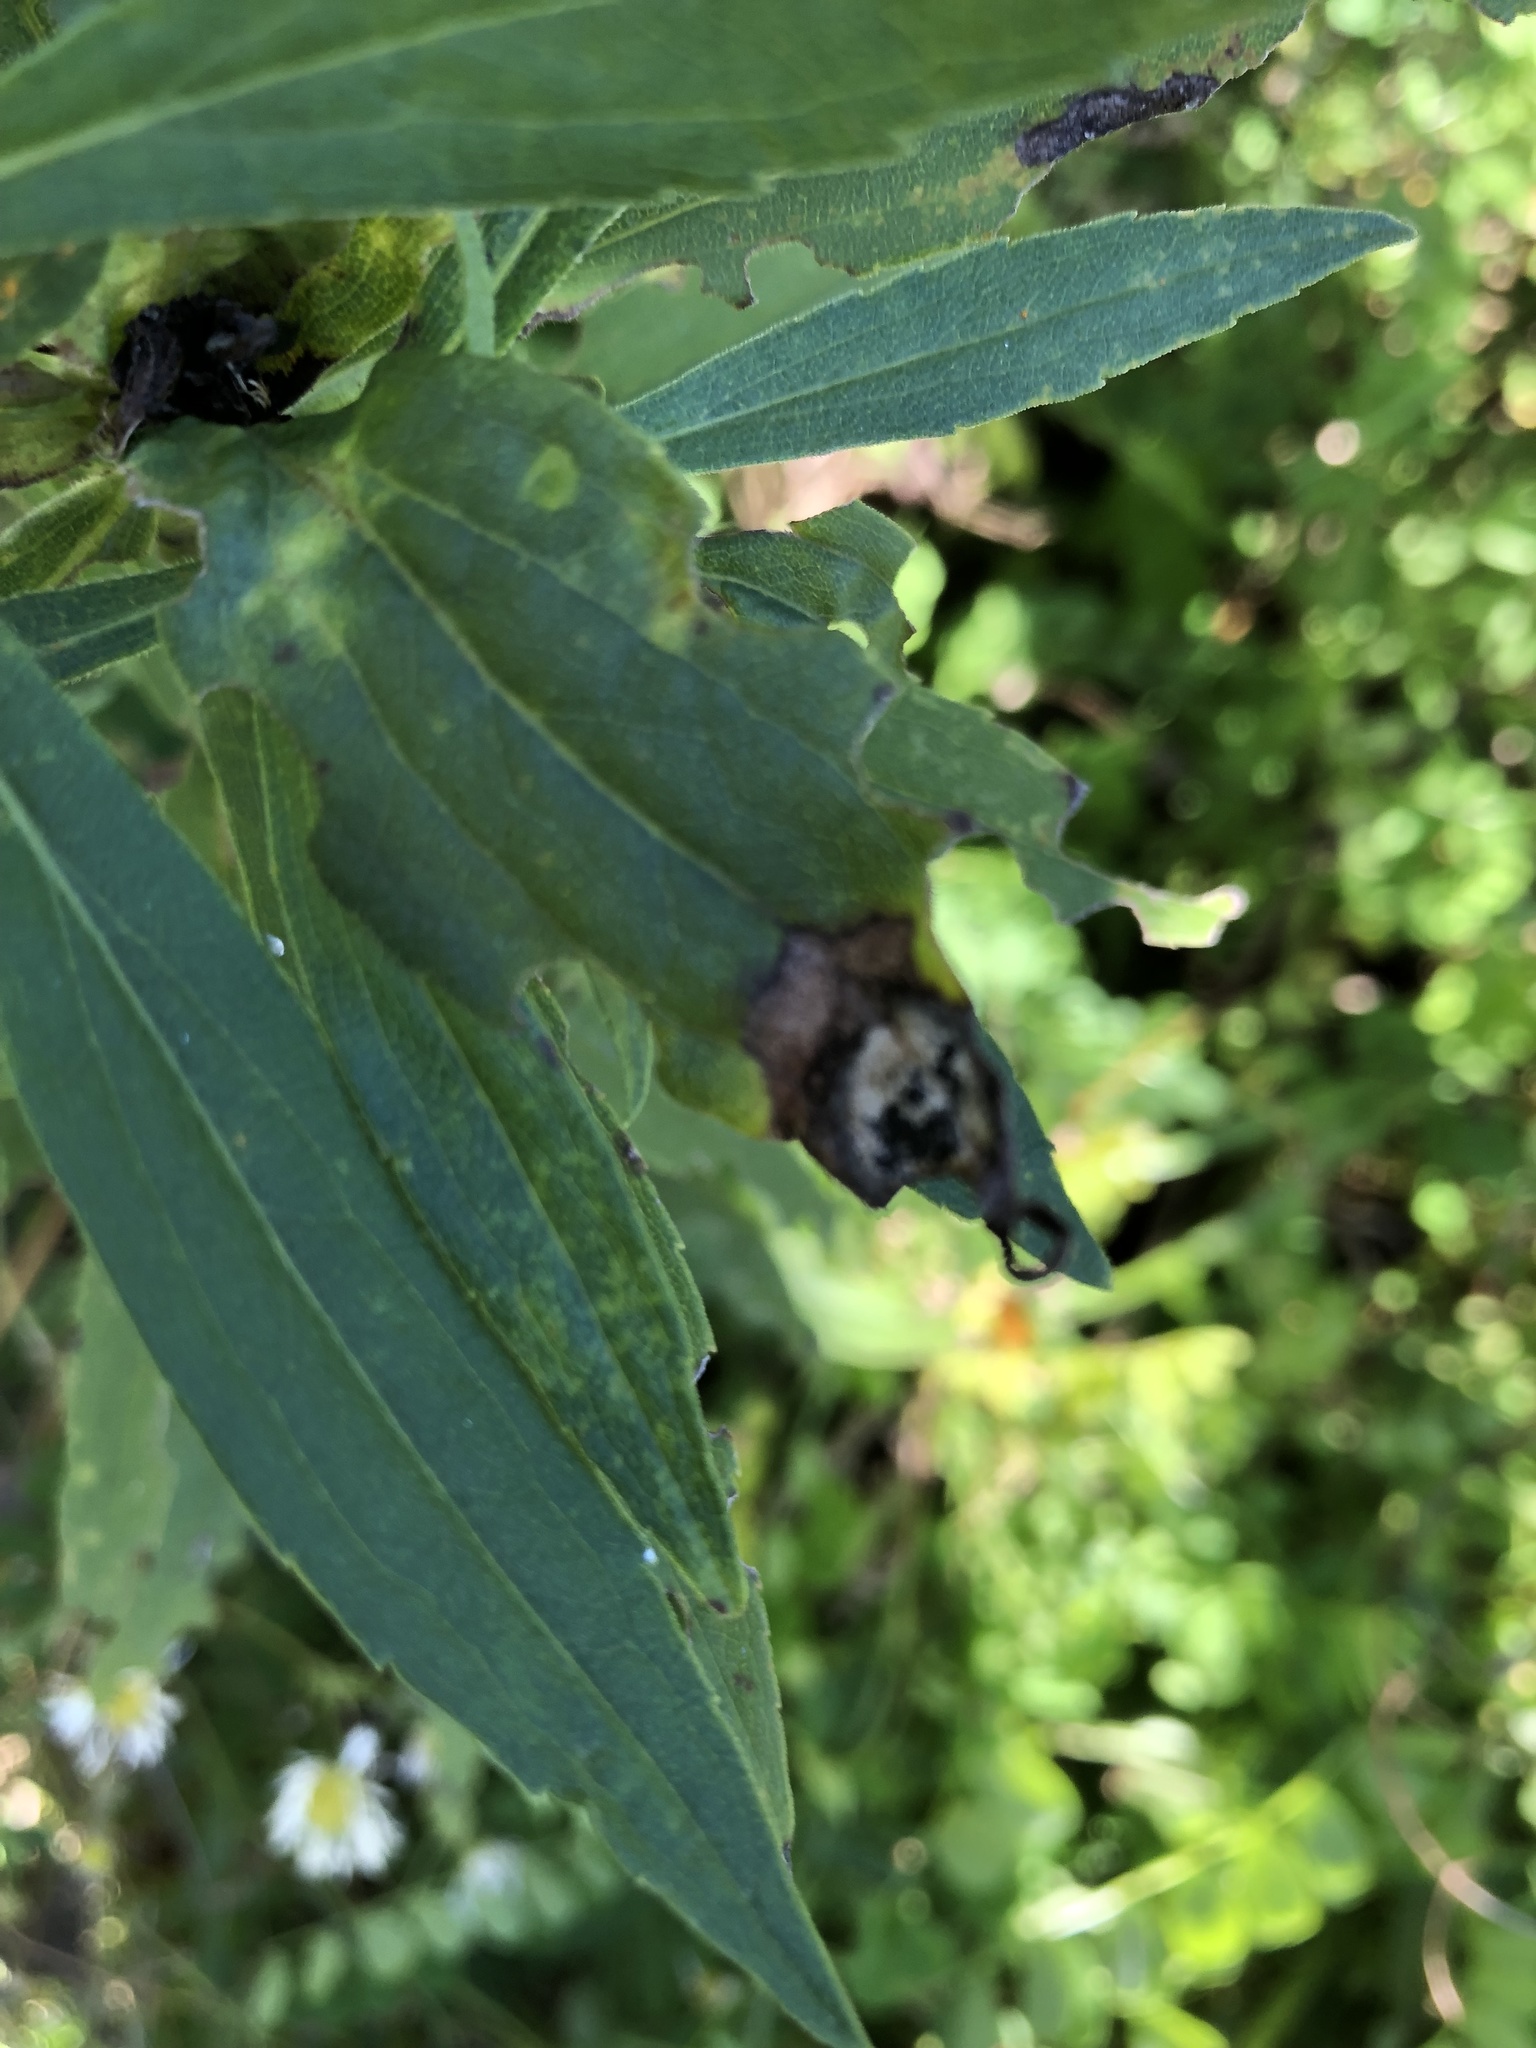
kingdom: Animalia
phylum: Arthropoda
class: Insecta
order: Diptera
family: Cecidomyiidae
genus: Asteromyia
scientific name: Asteromyia carbonifera
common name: Carbonifera goldenrod gall midge
